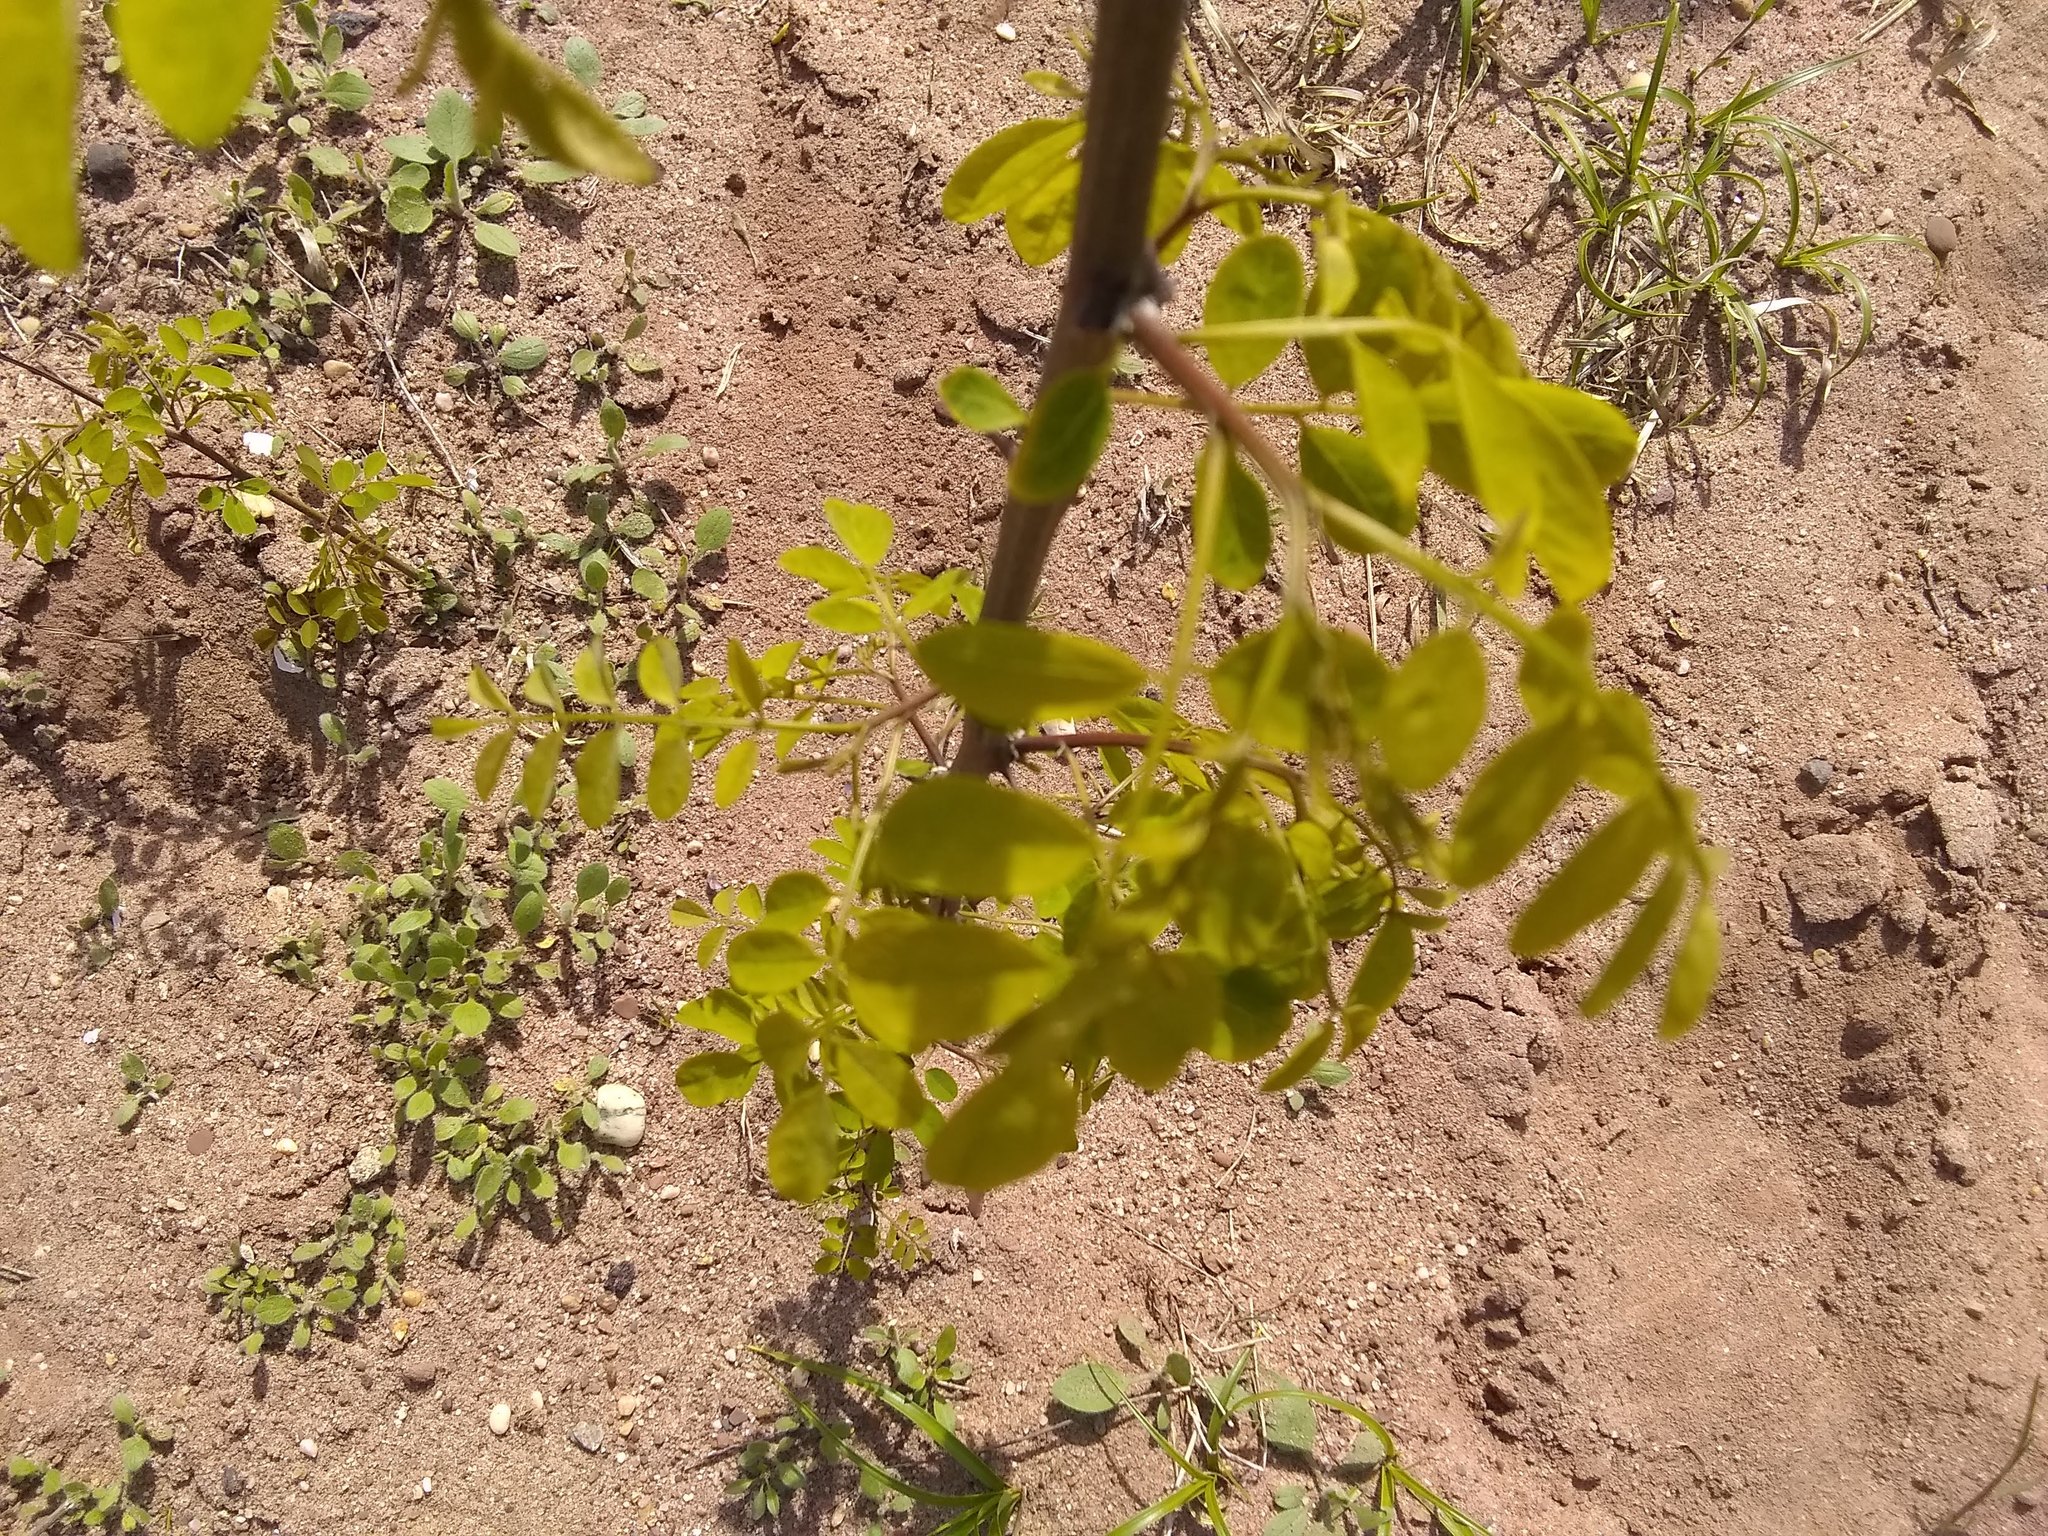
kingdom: Plantae
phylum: Tracheophyta
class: Magnoliopsida
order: Fabales
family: Fabaceae
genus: Robinia
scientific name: Robinia pseudoacacia
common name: Black locust
